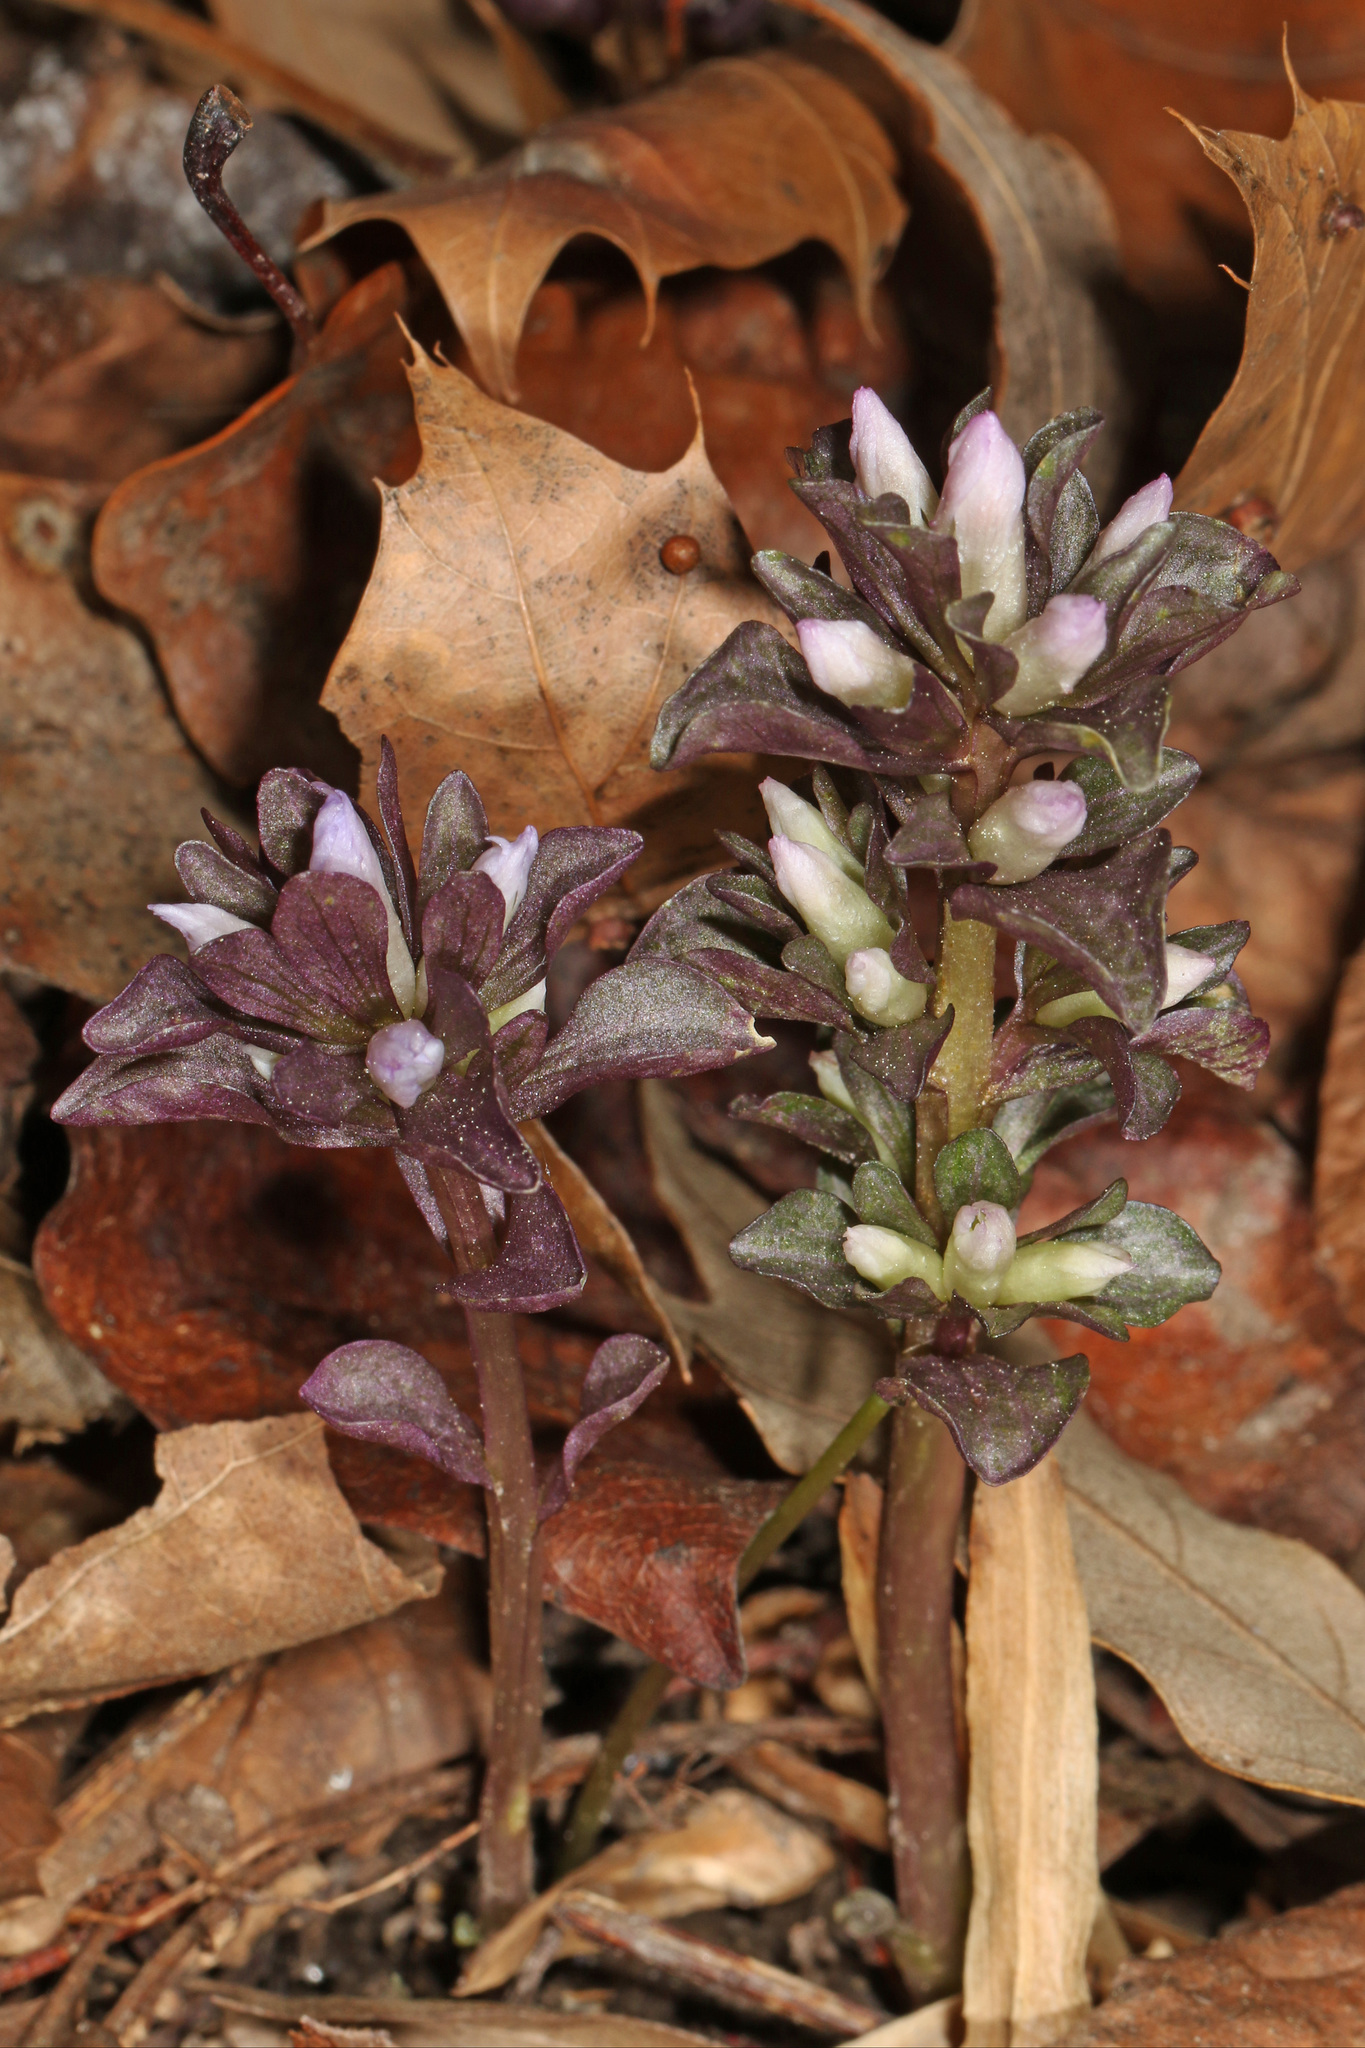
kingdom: Plantae
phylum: Tracheophyta
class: Magnoliopsida
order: Gentianales
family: Gentianaceae
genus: Obolaria
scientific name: Obolaria virginica
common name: Pennywort
